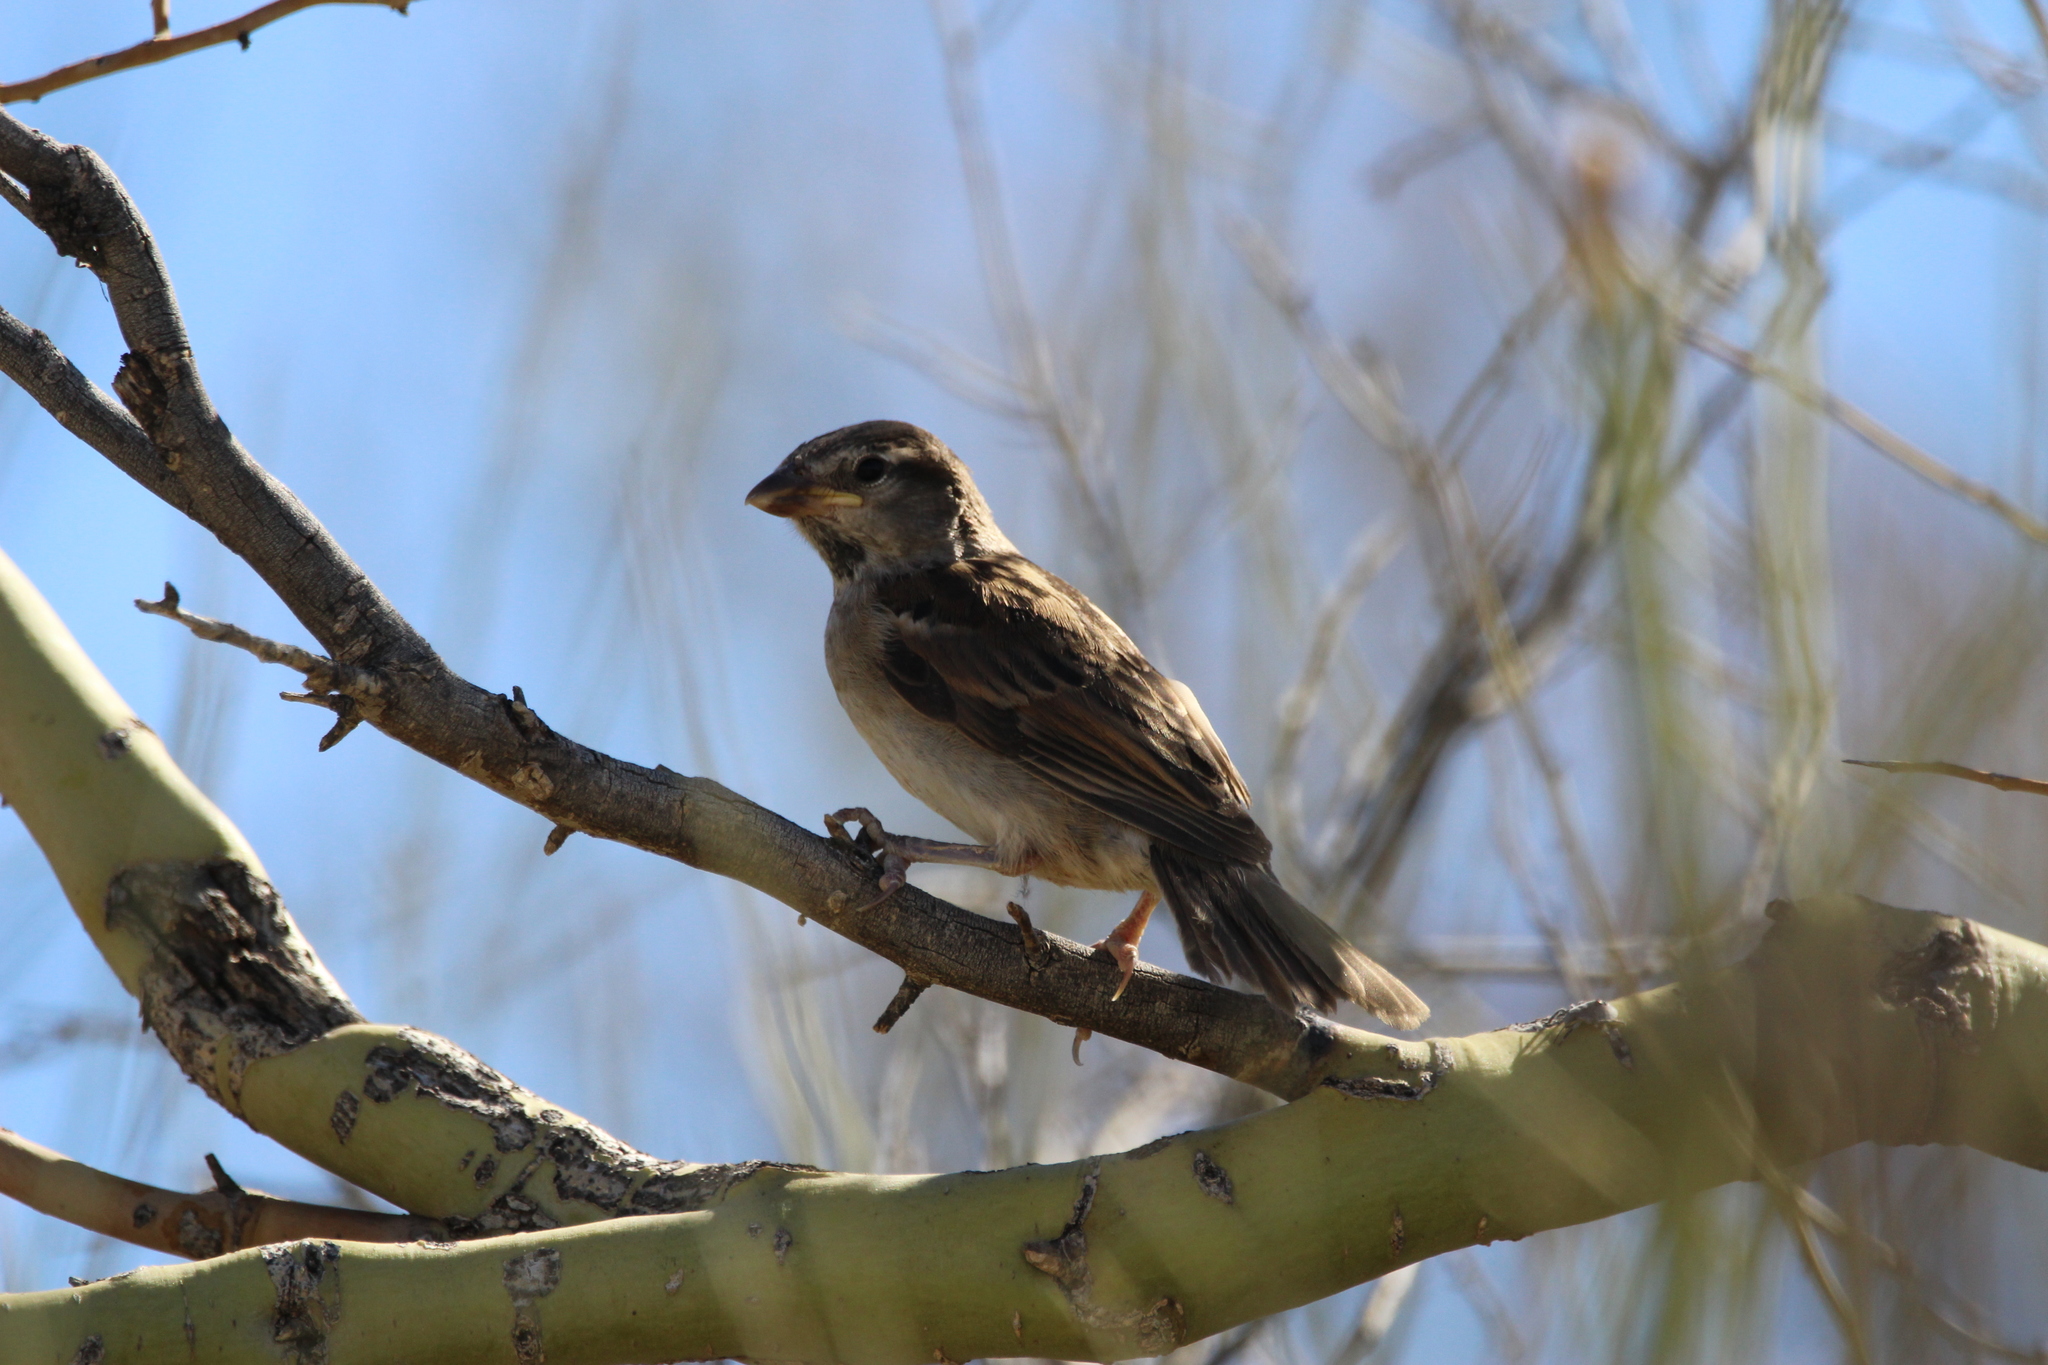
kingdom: Animalia
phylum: Chordata
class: Aves
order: Passeriformes
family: Passeridae
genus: Passer
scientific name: Passer domesticus
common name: House sparrow
